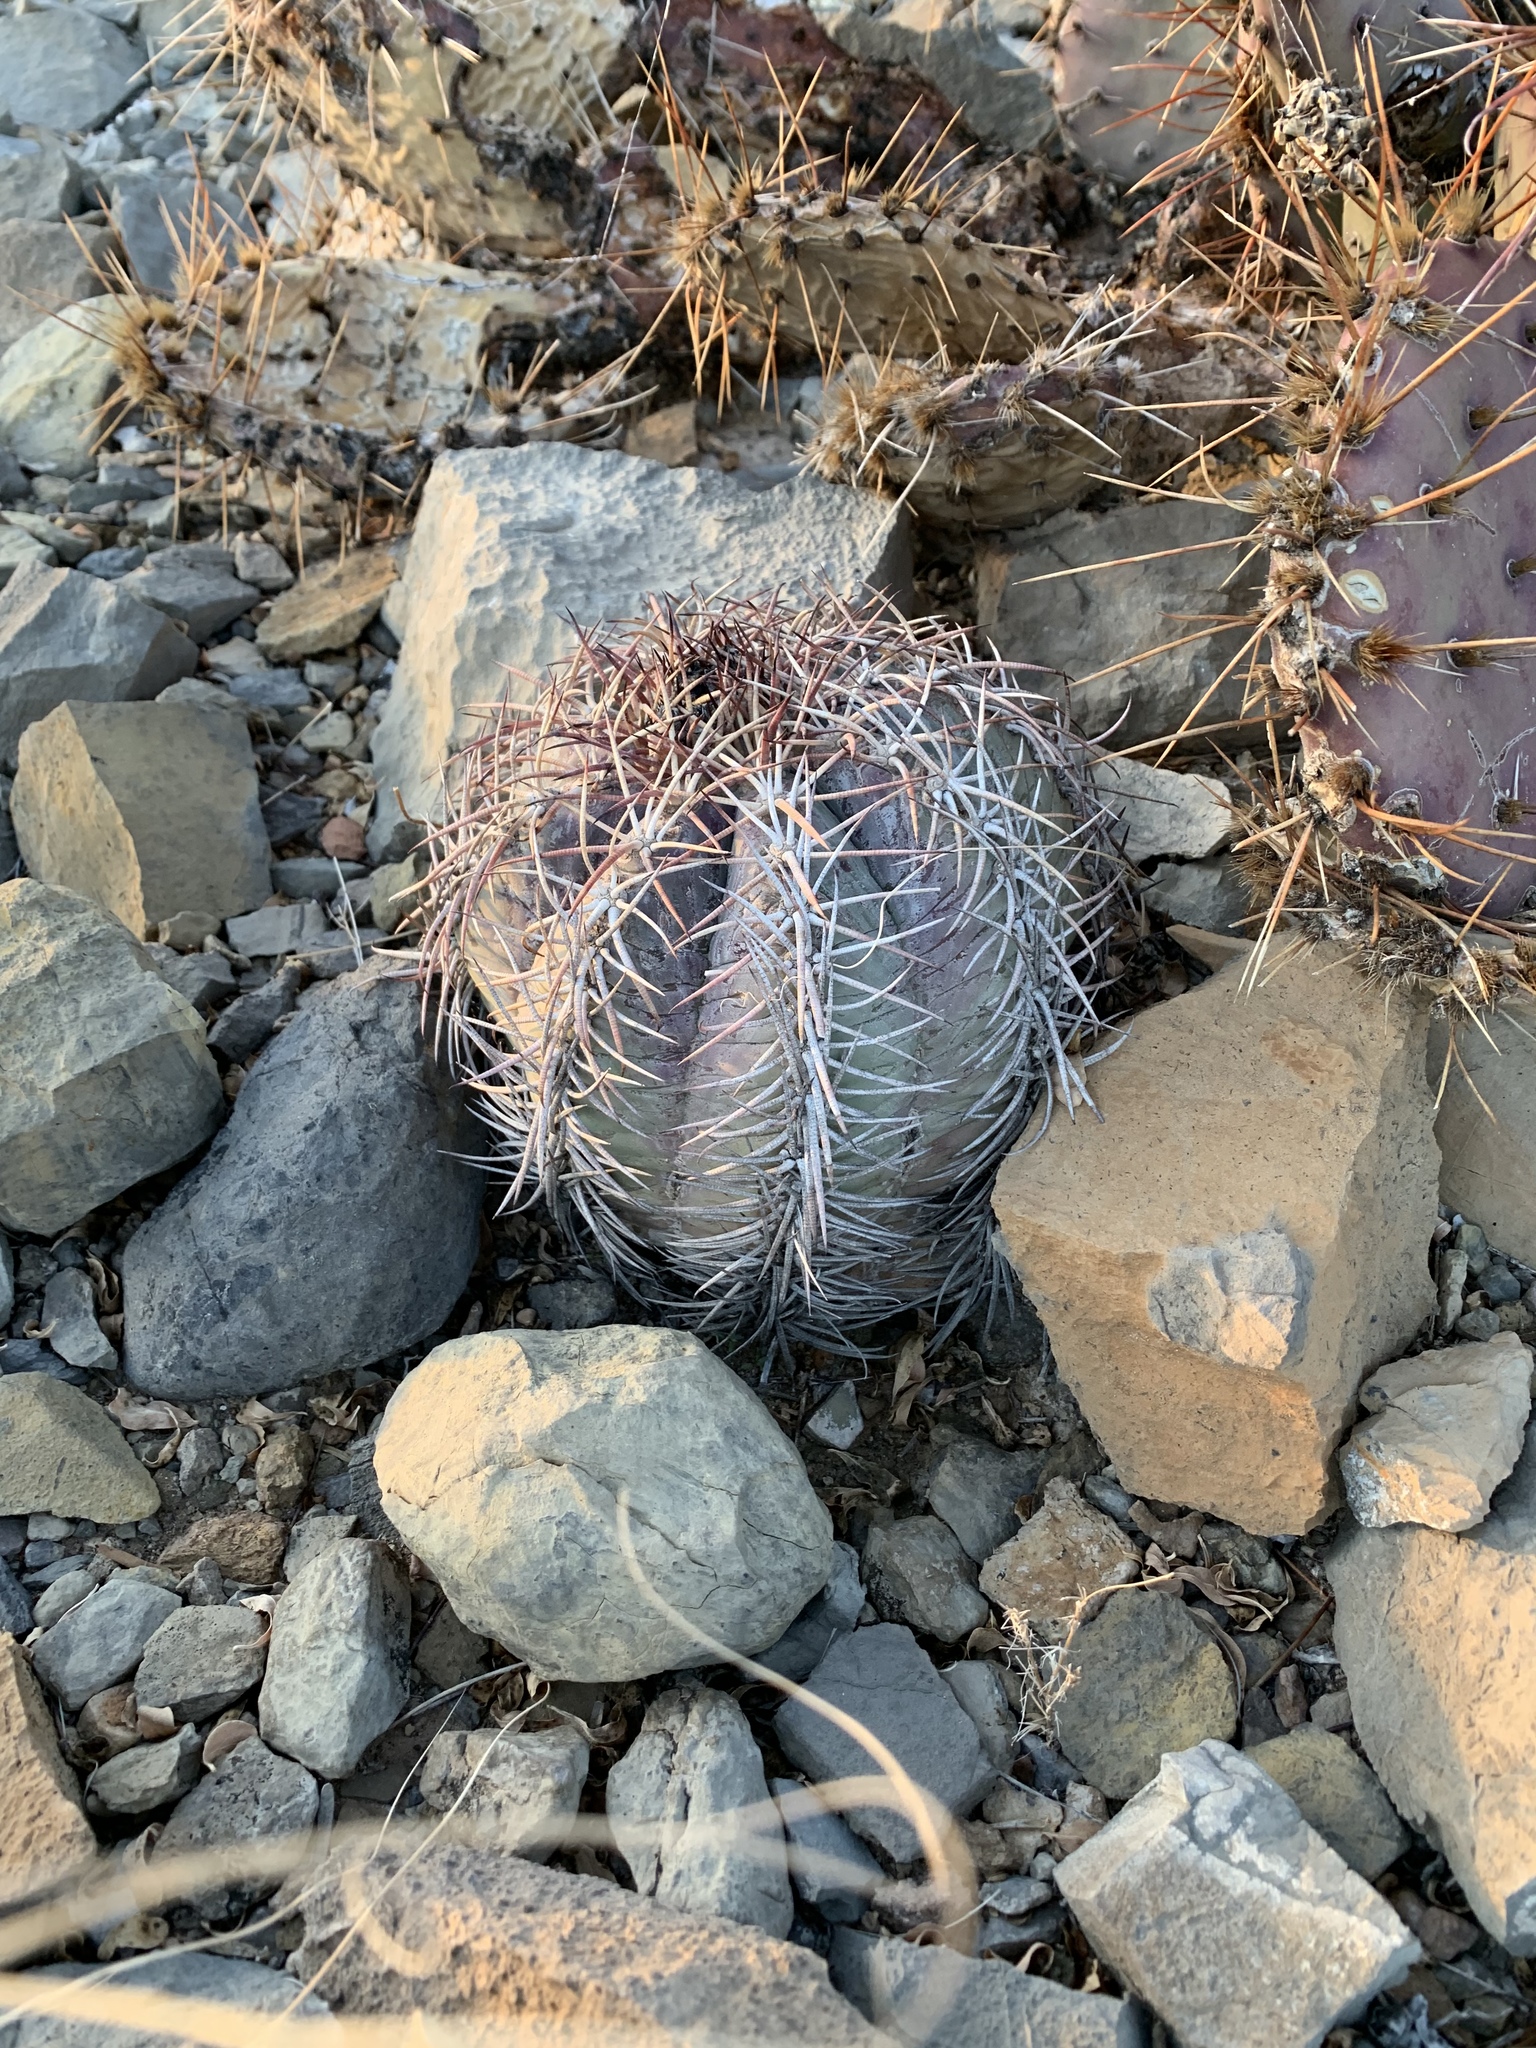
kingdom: Plantae
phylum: Tracheophyta
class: Magnoliopsida
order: Caryophyllales
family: Cactaceae
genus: Echinocactus
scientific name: Echinocactus horizonthalonius
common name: Devilshead
